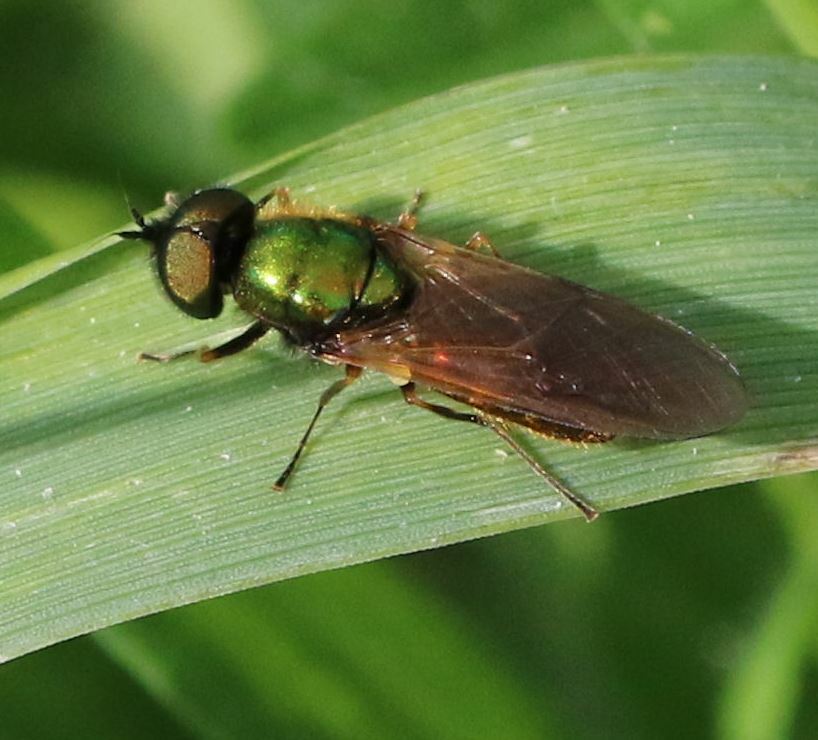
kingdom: Animalia
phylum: Arthropoda
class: Insecta
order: Diptera
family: Stratiomyidae
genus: Chloromyia
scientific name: Chloromyia formosa
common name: Soldier fly
